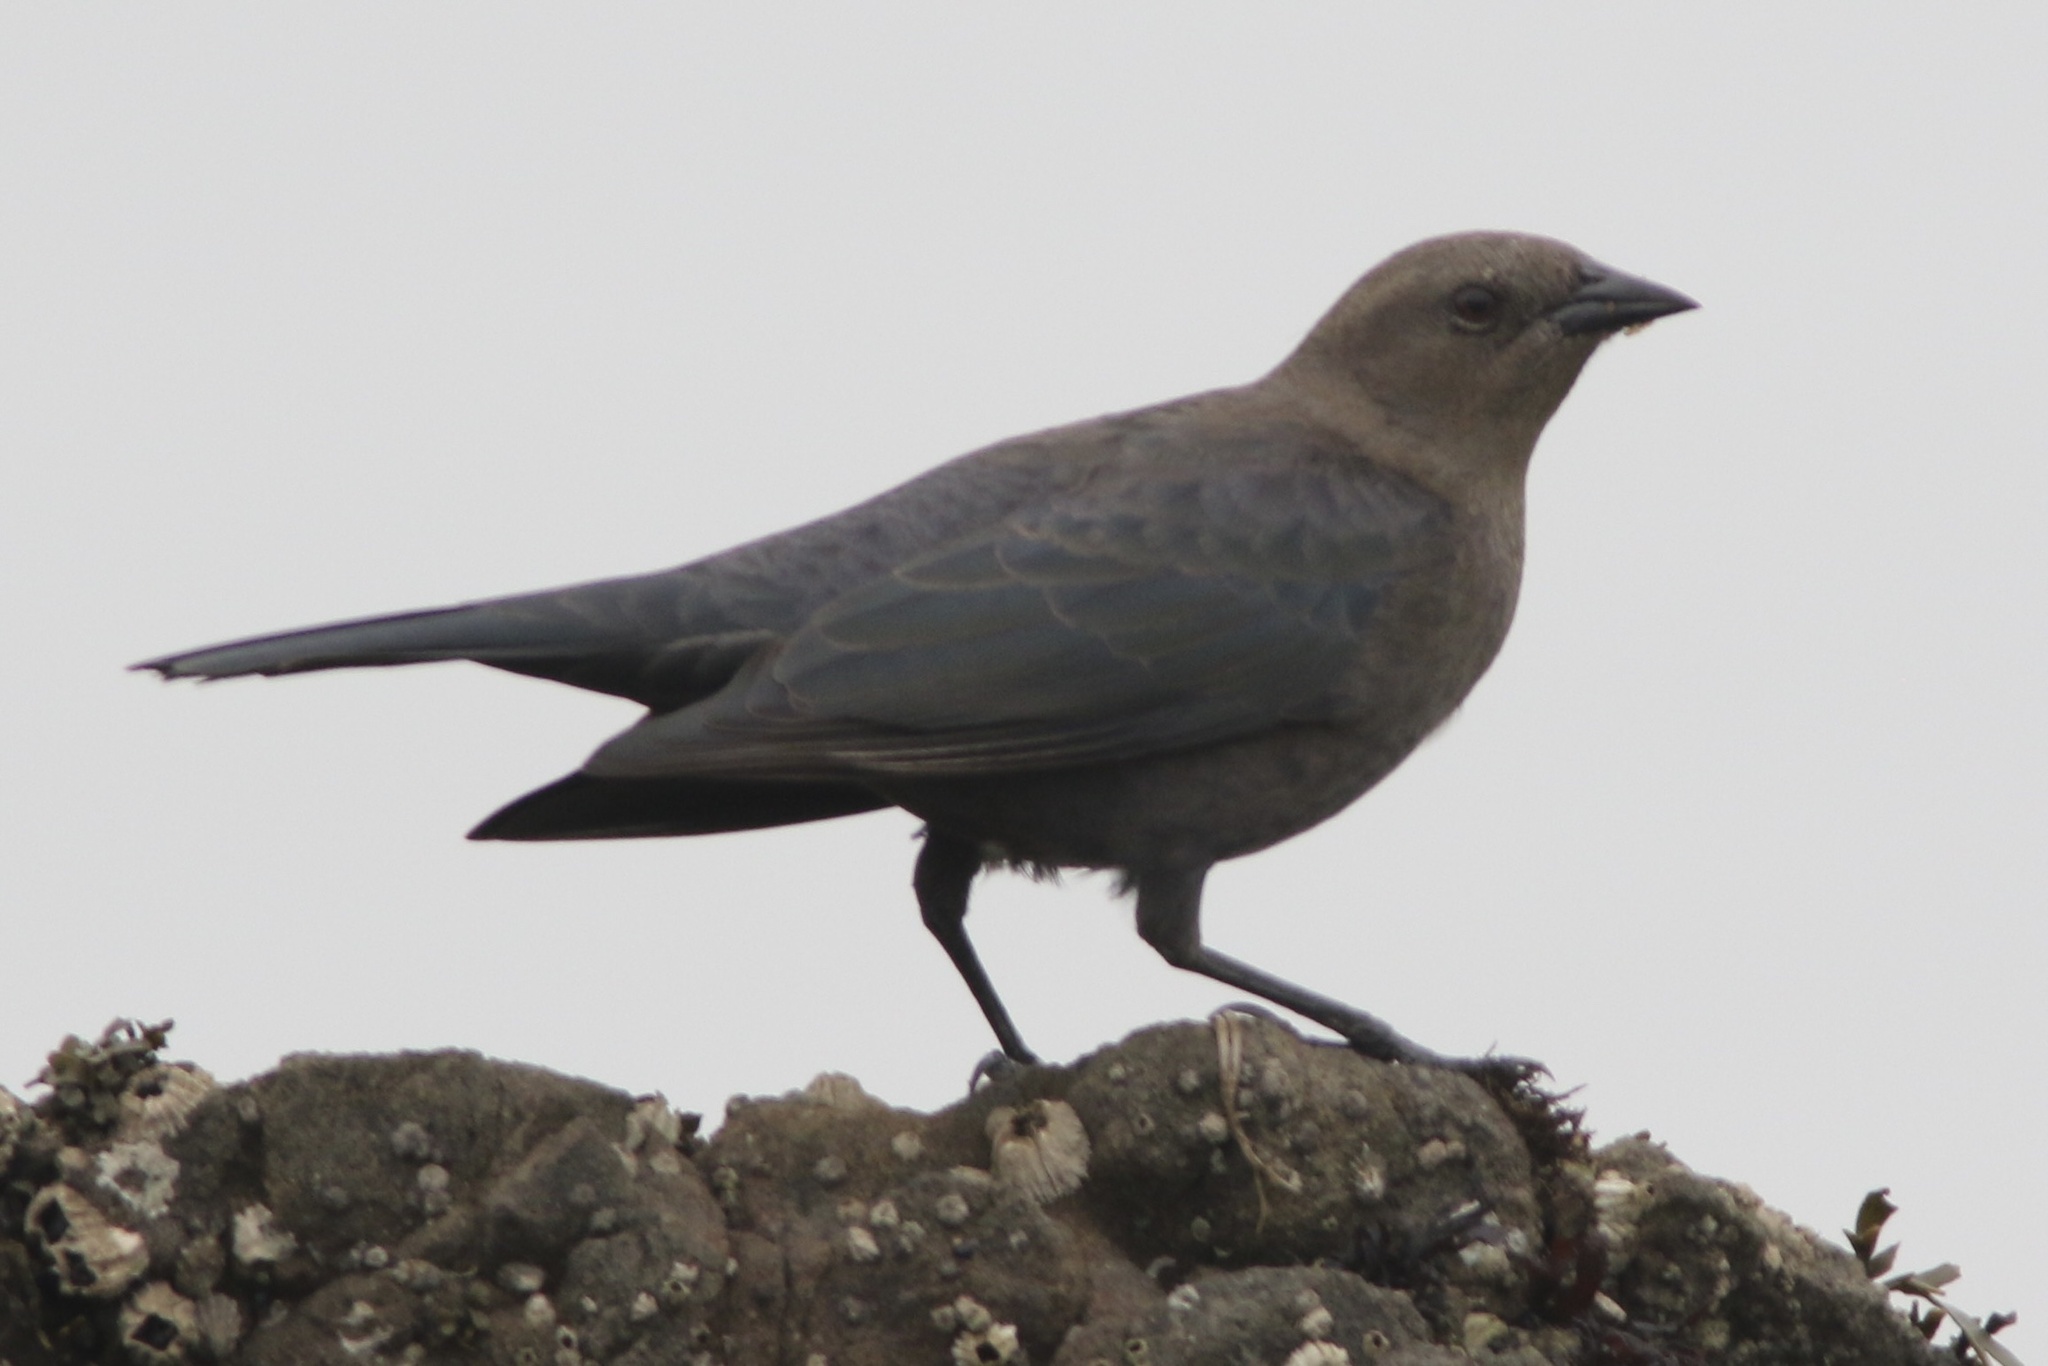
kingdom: Animalia
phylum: Chordata
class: Aves
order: Passeriformes
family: Icteridae
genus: Euphagus
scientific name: Euphagus cyanocephalus
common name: Brewer's blackbird
